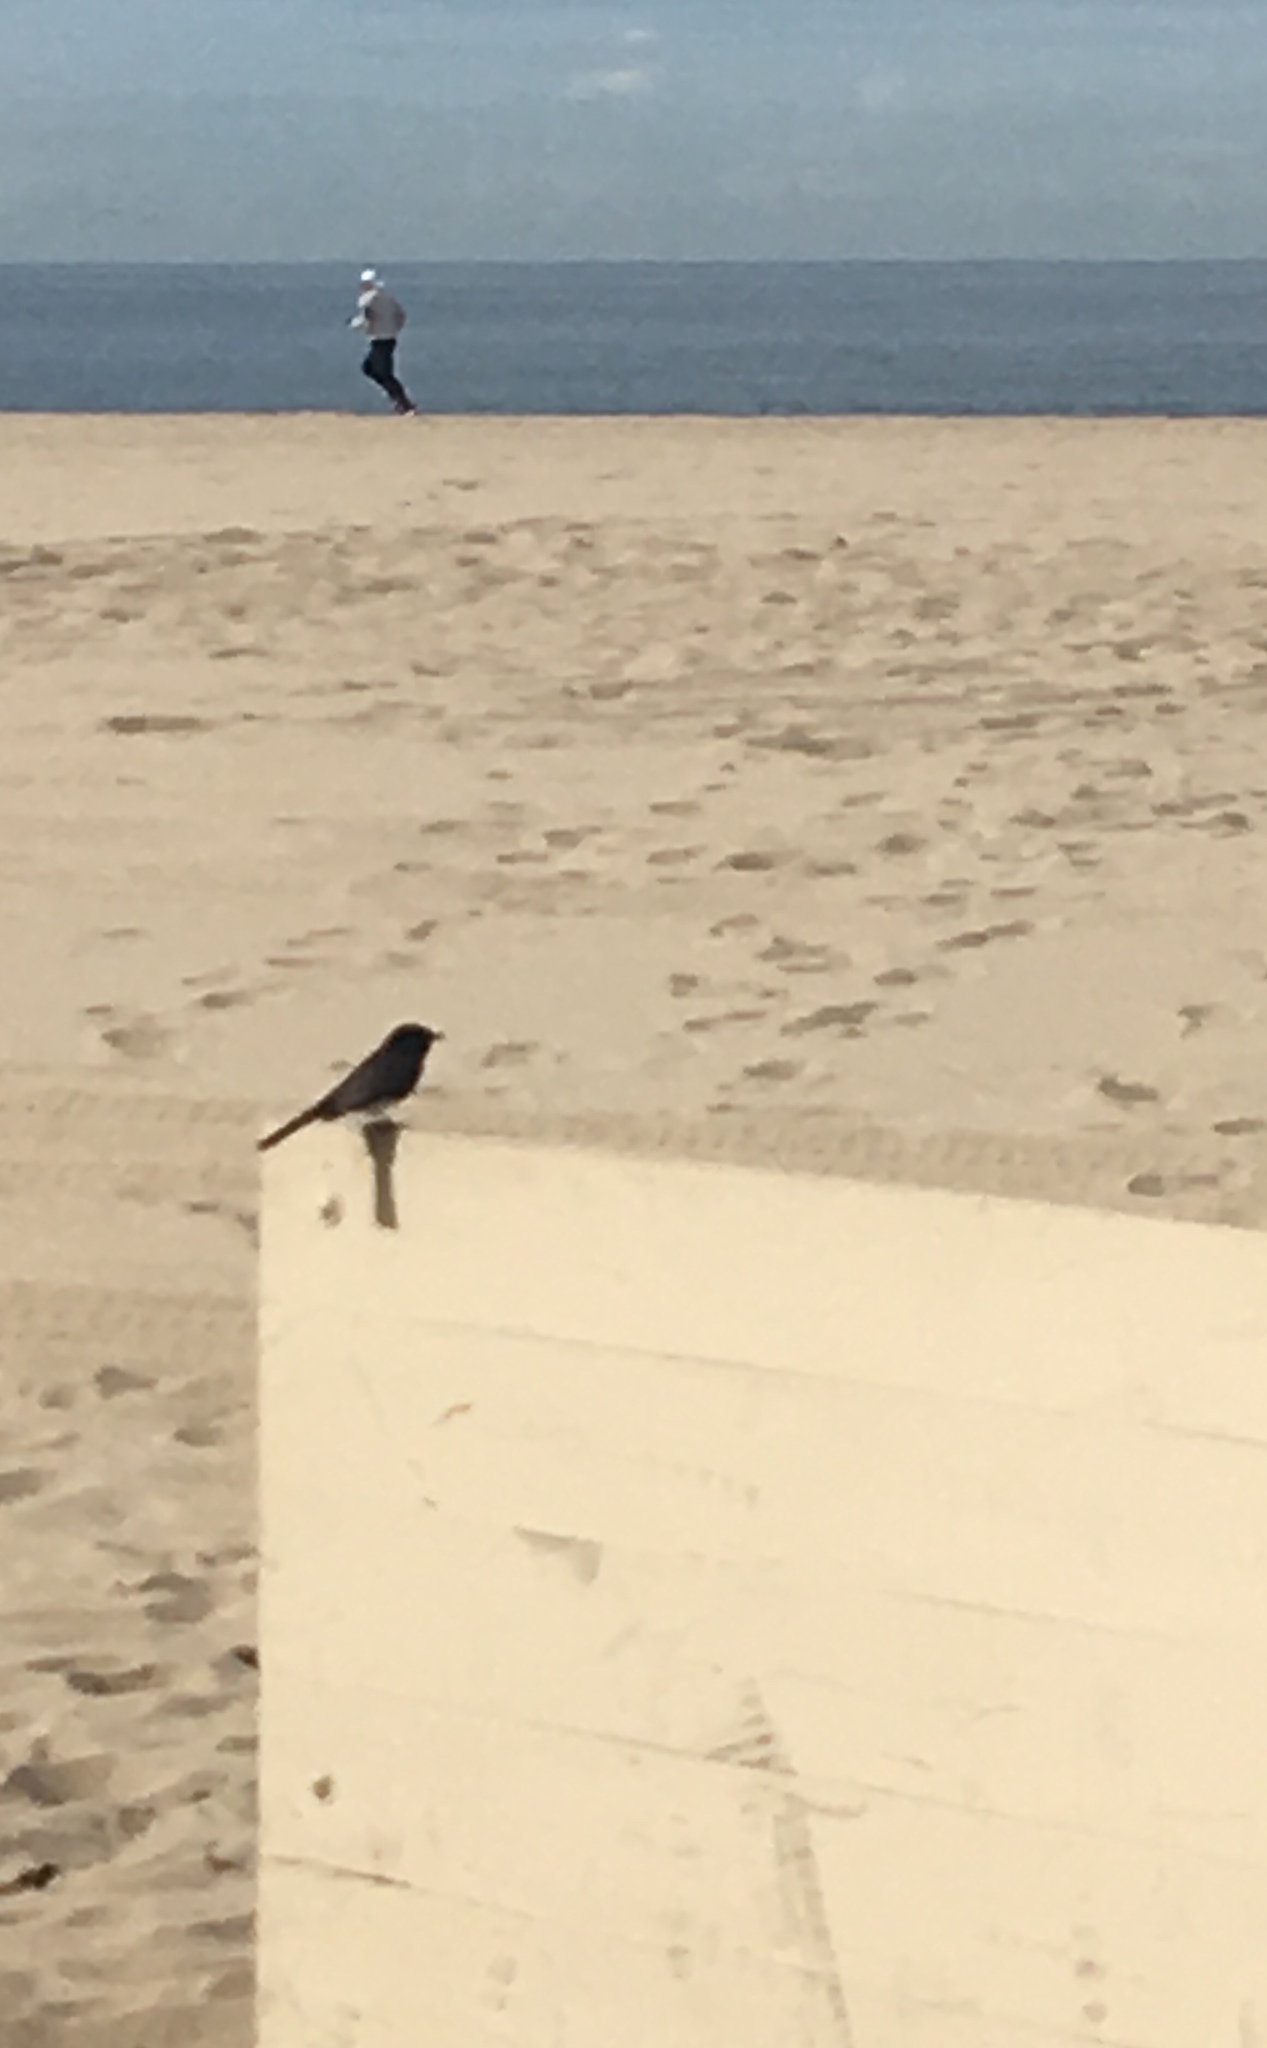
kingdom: Animalia
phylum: Chordata
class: Aves
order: Passeriformes
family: Tyrannidae
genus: Sayornis
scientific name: Sayornis nigricans
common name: Black phoebe
